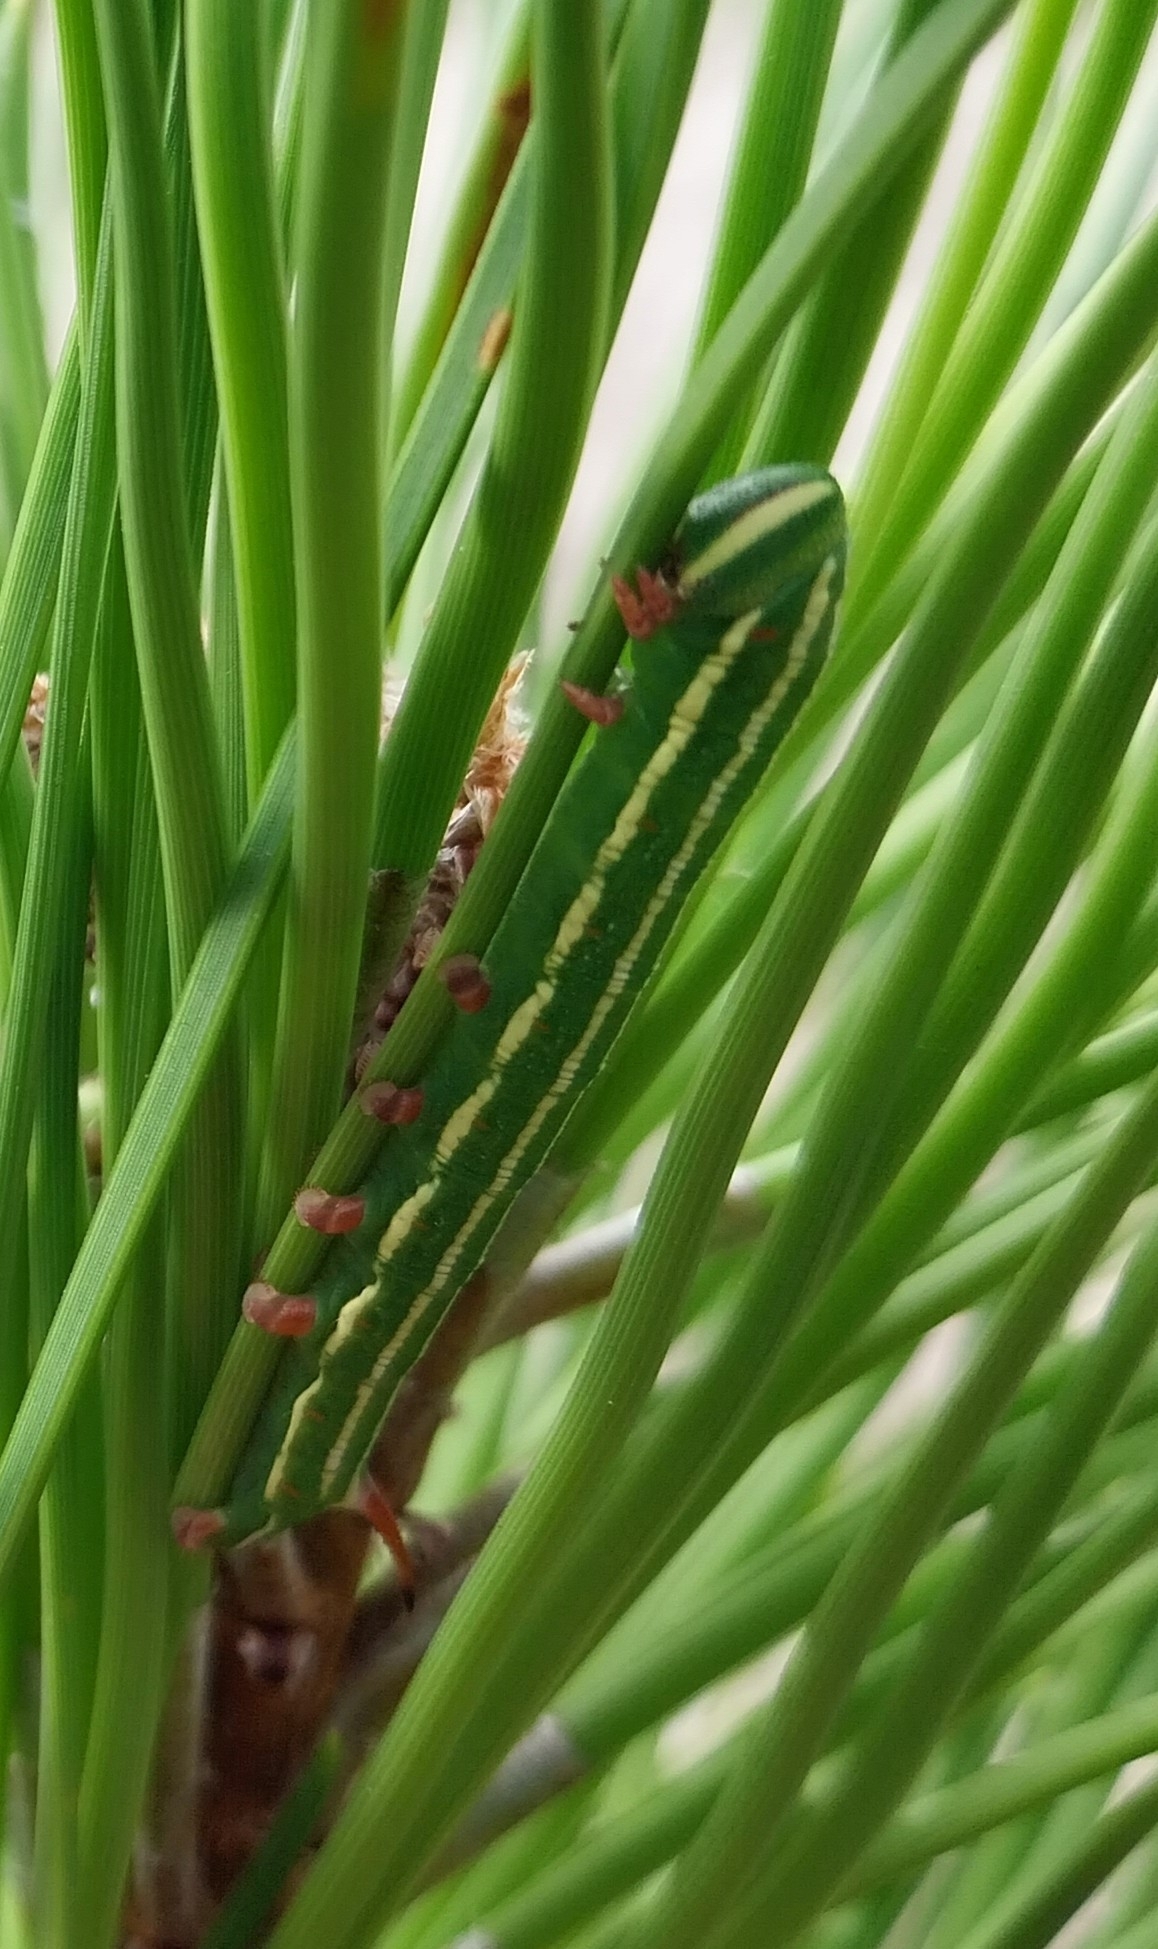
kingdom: Animalia
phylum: Arthropoda
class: Insecta
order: Lepidoptera
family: Sphingidae
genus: Sphinx
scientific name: Sphinx pinastri
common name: Pine hawk-moth
